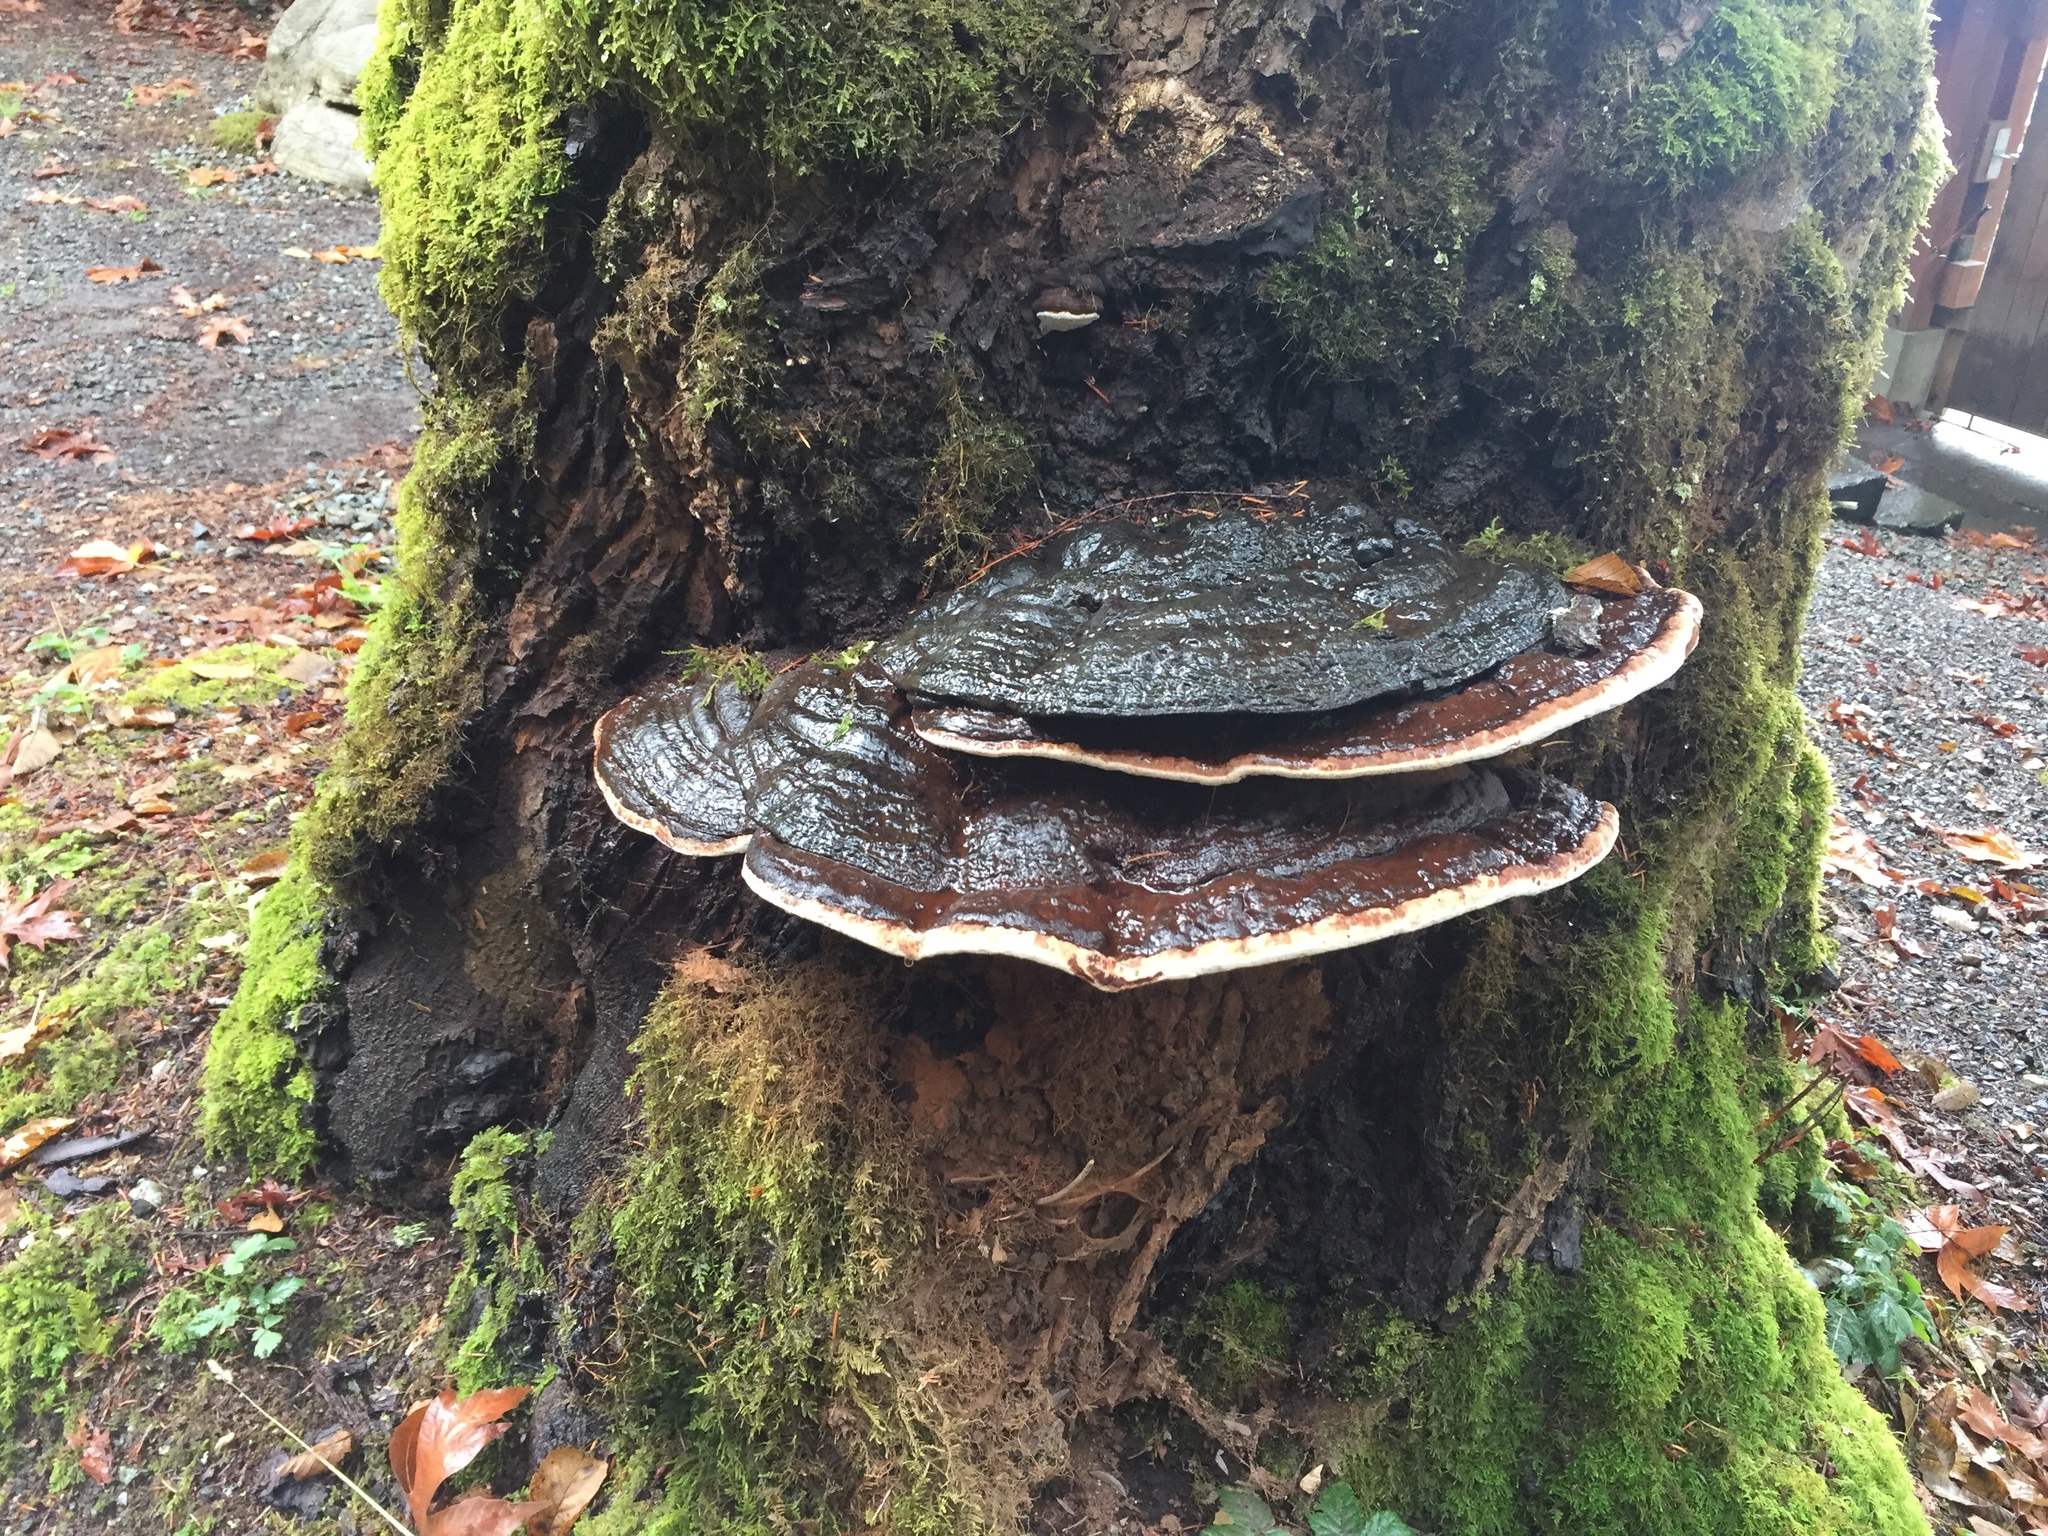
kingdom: Fungi
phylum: Basidiomycota
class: Agaricomycetes
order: Polyporales
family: Polyporaceae
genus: Ganoderma
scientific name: Ganoderma applanatum
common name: Artist's bracket
